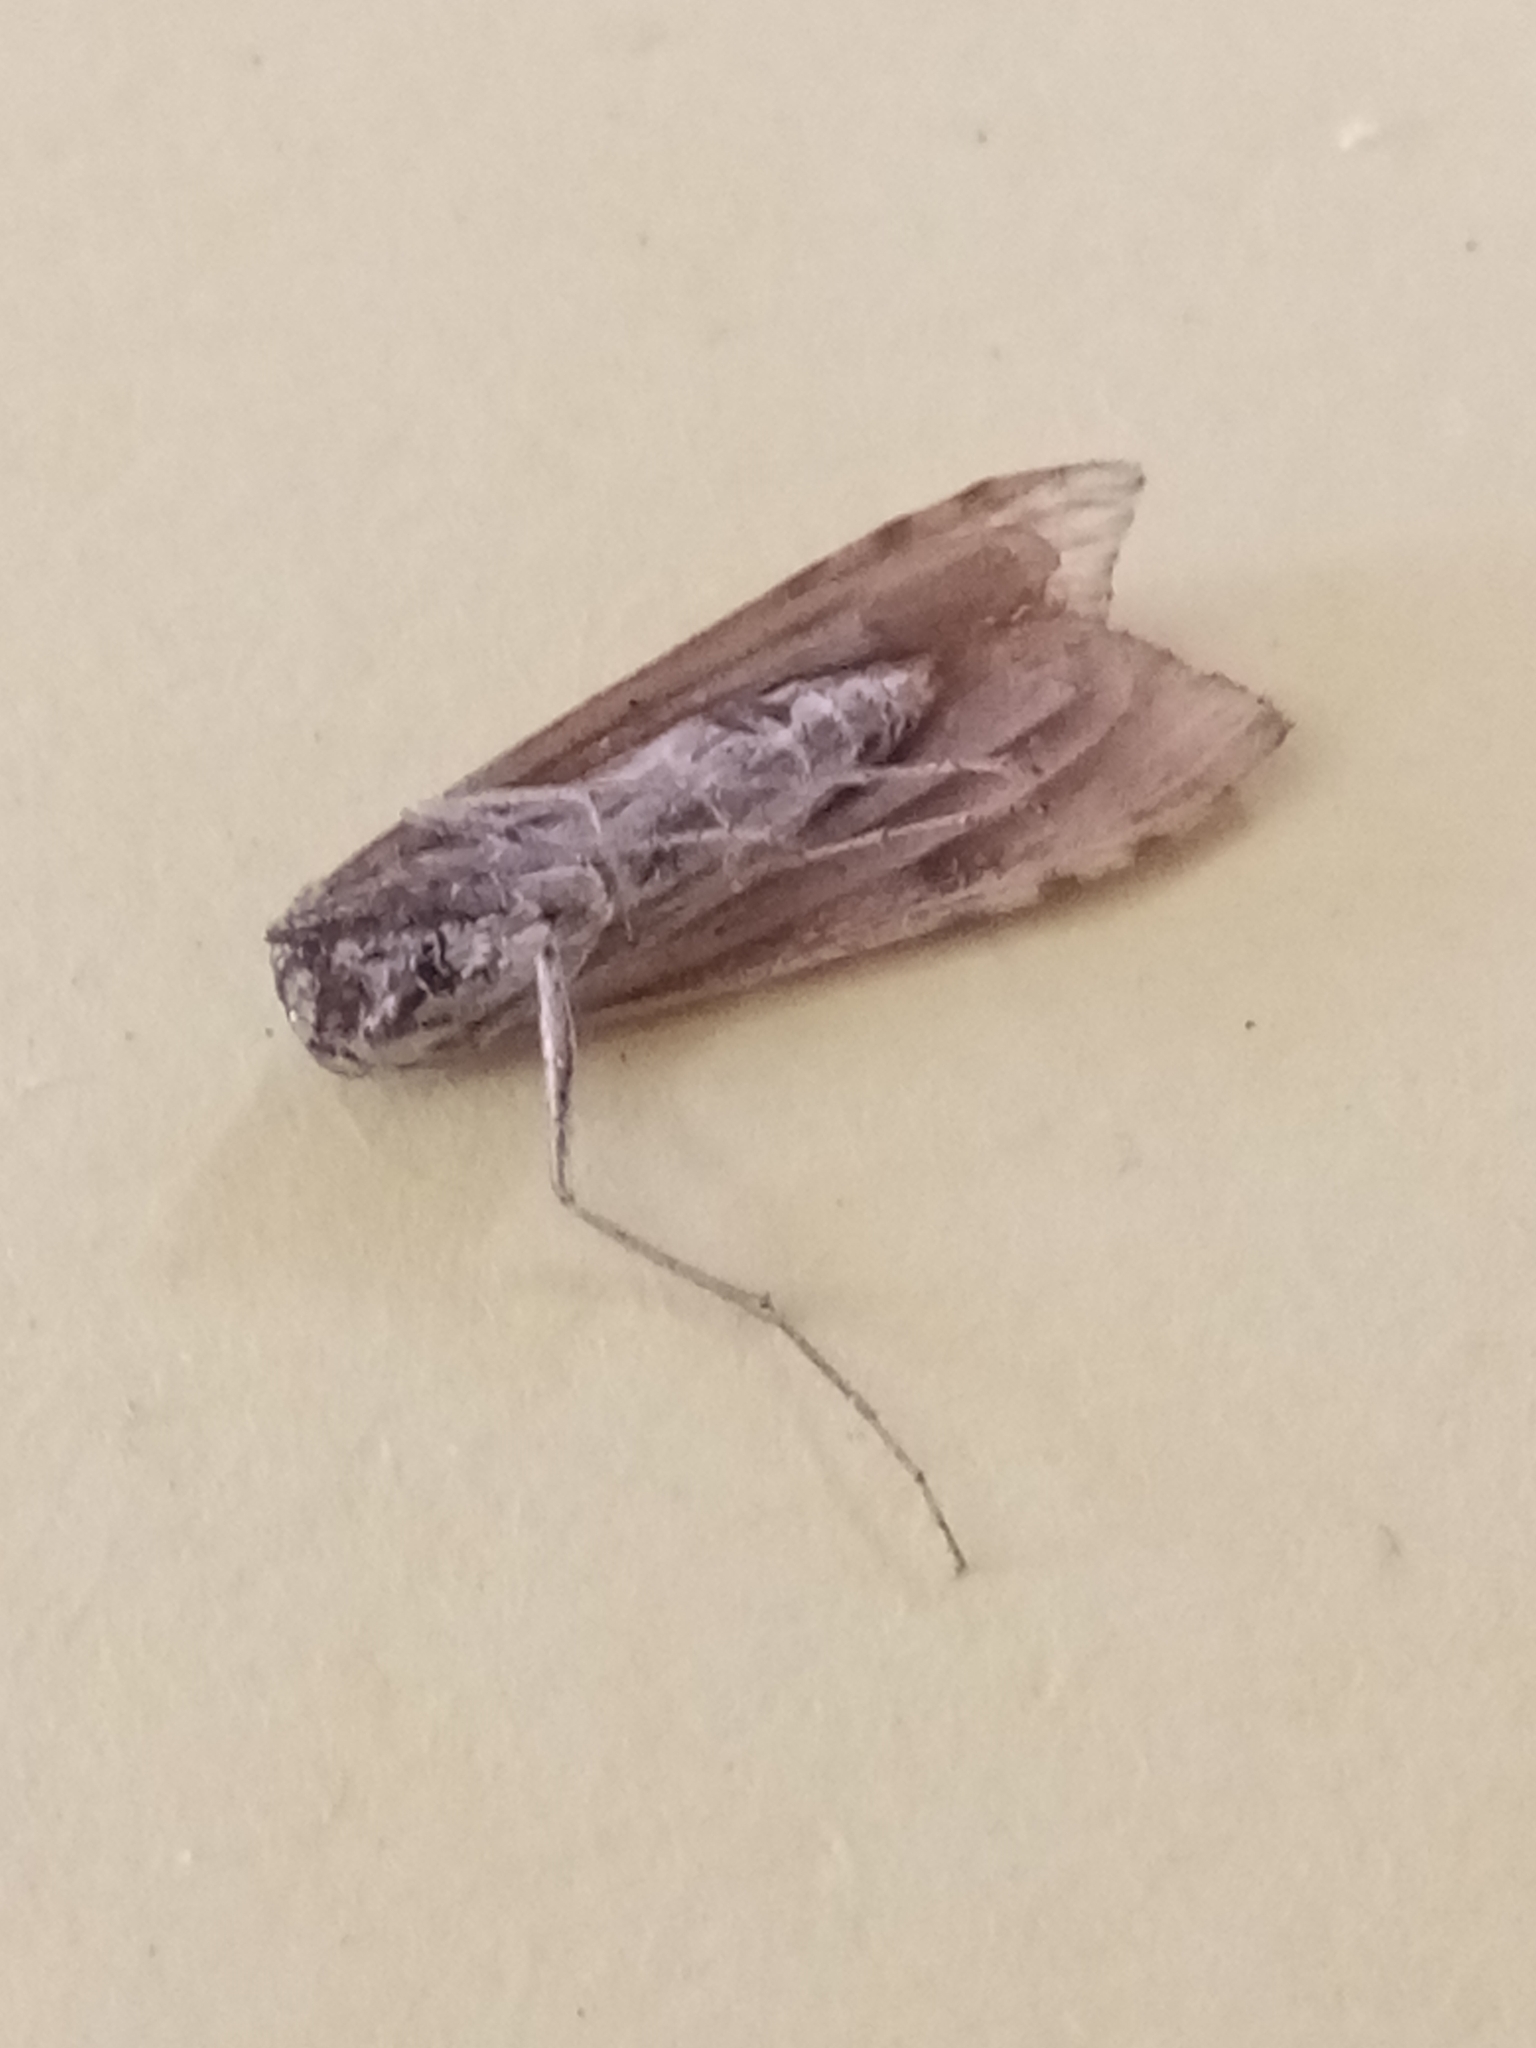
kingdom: Animalia
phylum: Arthropoda
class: Insecta
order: Lepidoptera
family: Crambidae
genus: Nomophila
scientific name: Nomophila noctuella
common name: Rush veneer
